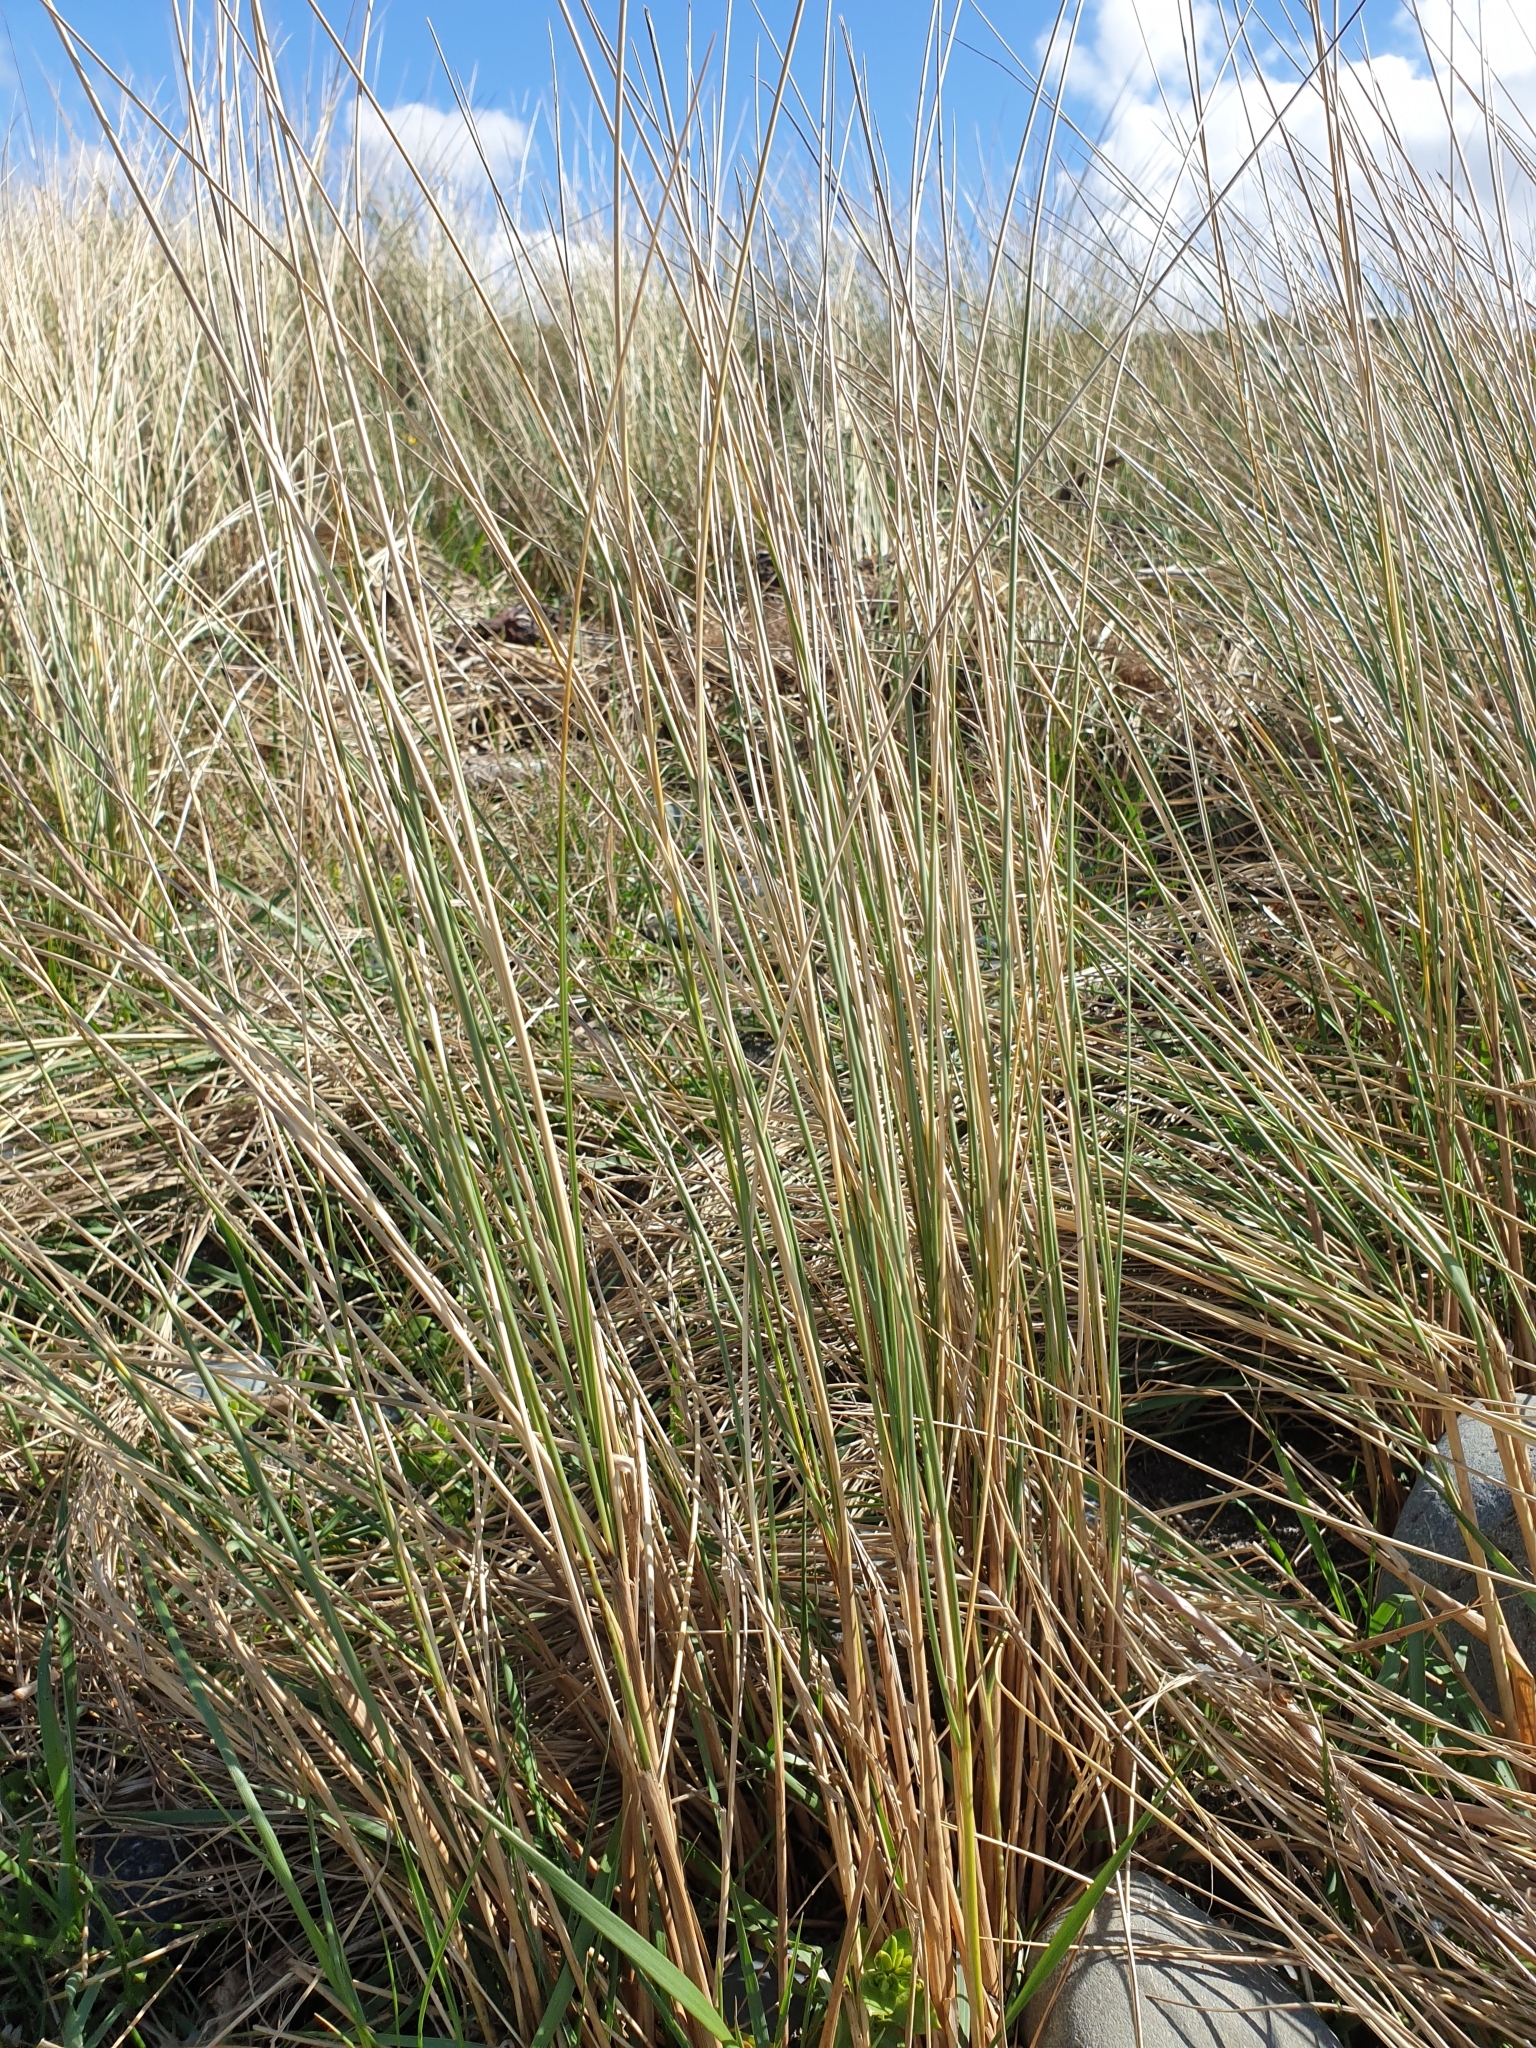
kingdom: Plantae
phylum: Tracheophyta
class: Liliopsida
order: Poales
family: Poaceae
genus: Calamagrostis
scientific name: Calamagrostis arenaria
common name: European beachgrass
